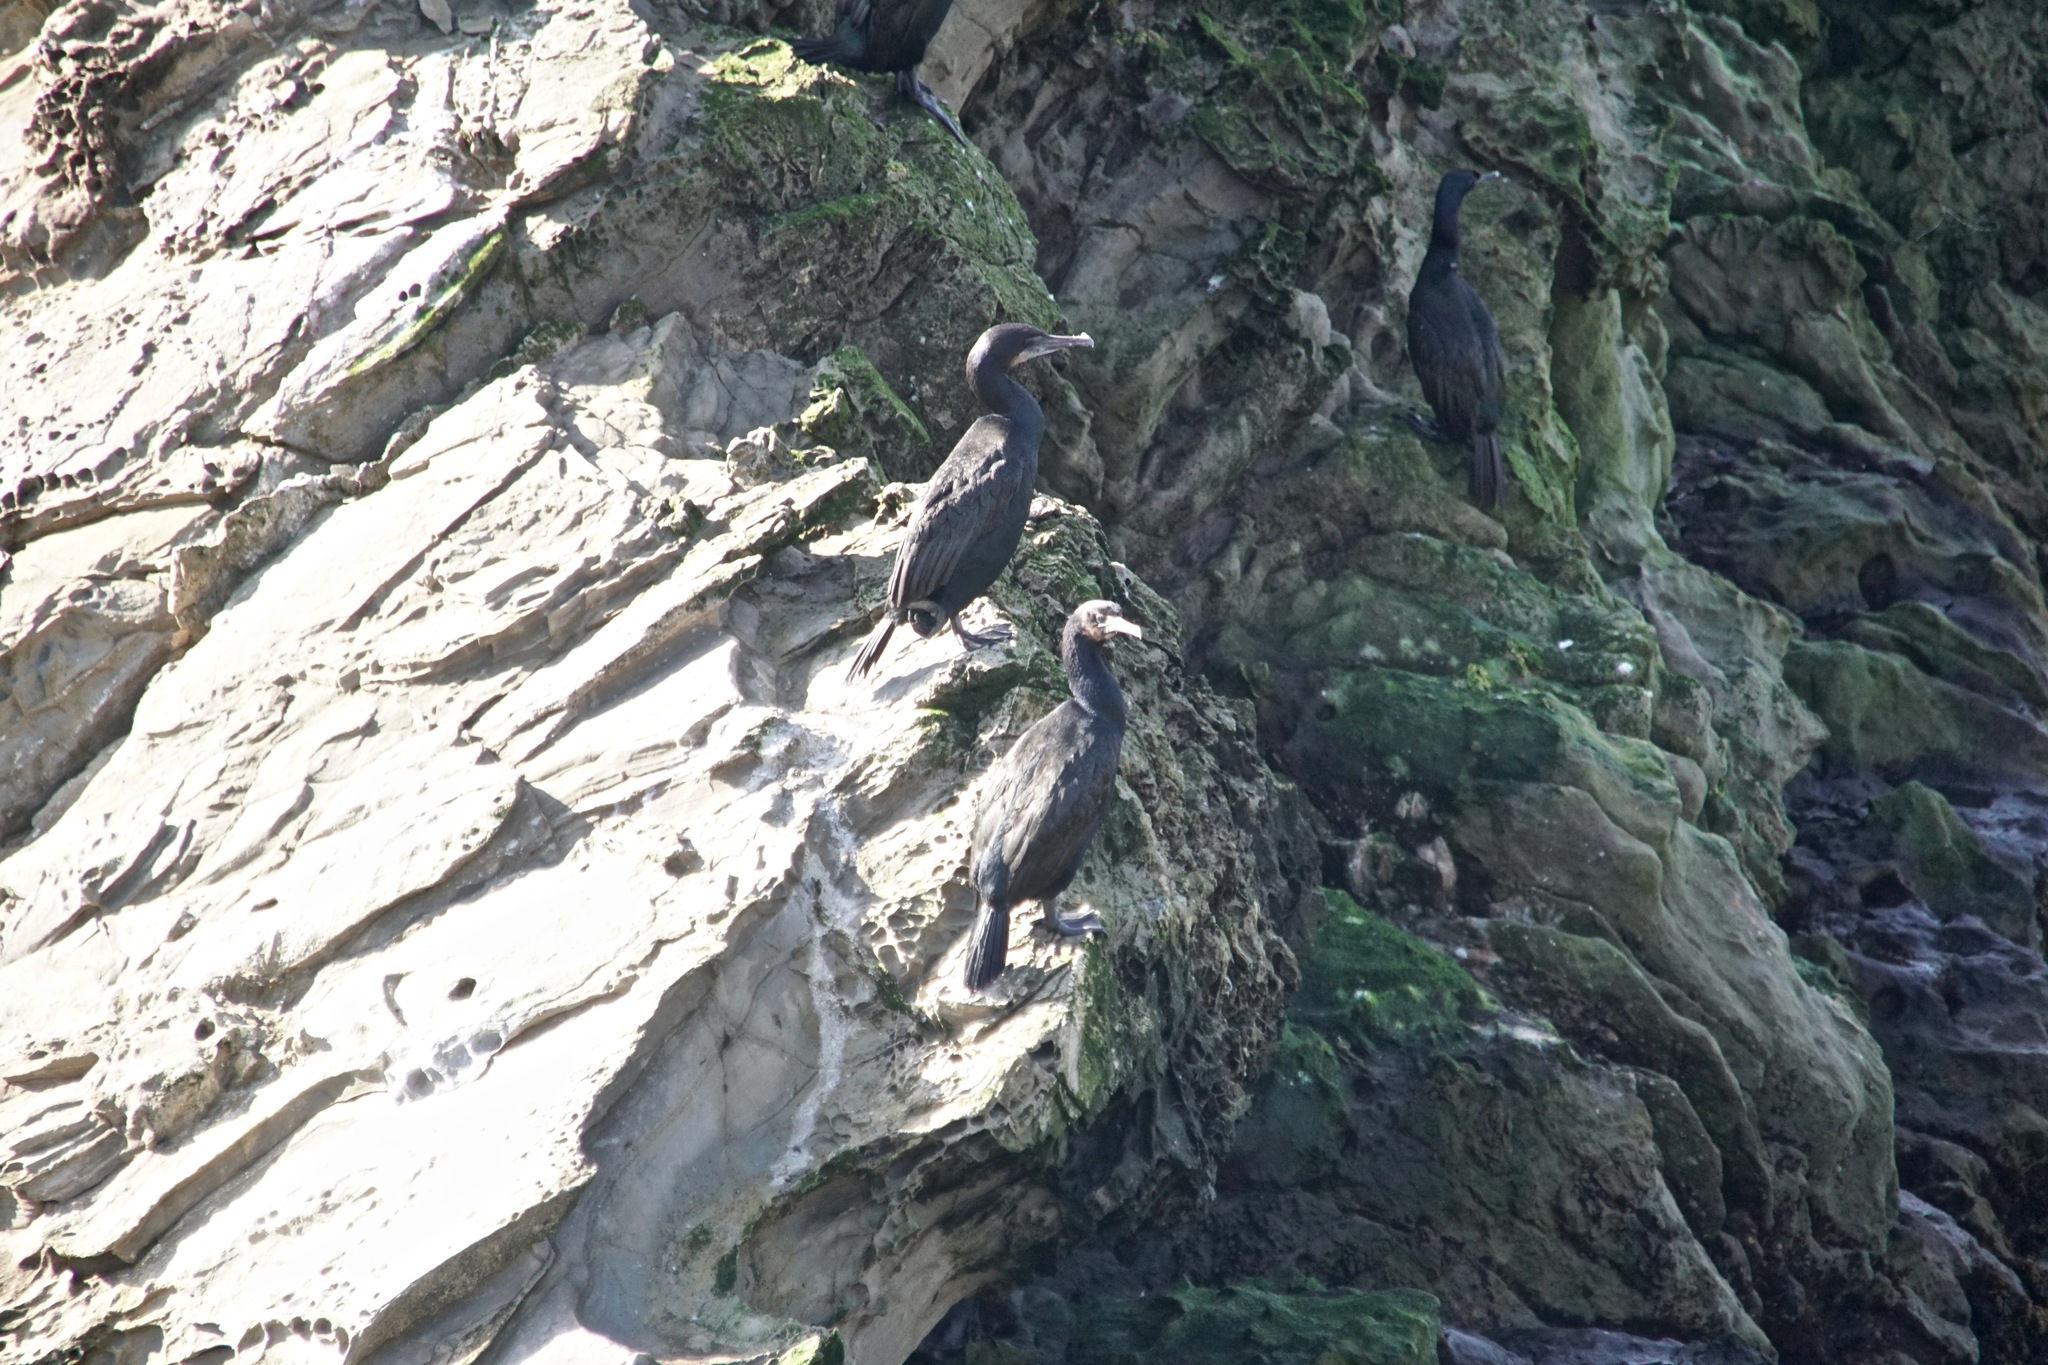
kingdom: Animalia
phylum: Chordata
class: Aves
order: Suliformes
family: Phalacrocoracidae
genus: Urile
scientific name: Urile penicillatus
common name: Brandt's cormorant
